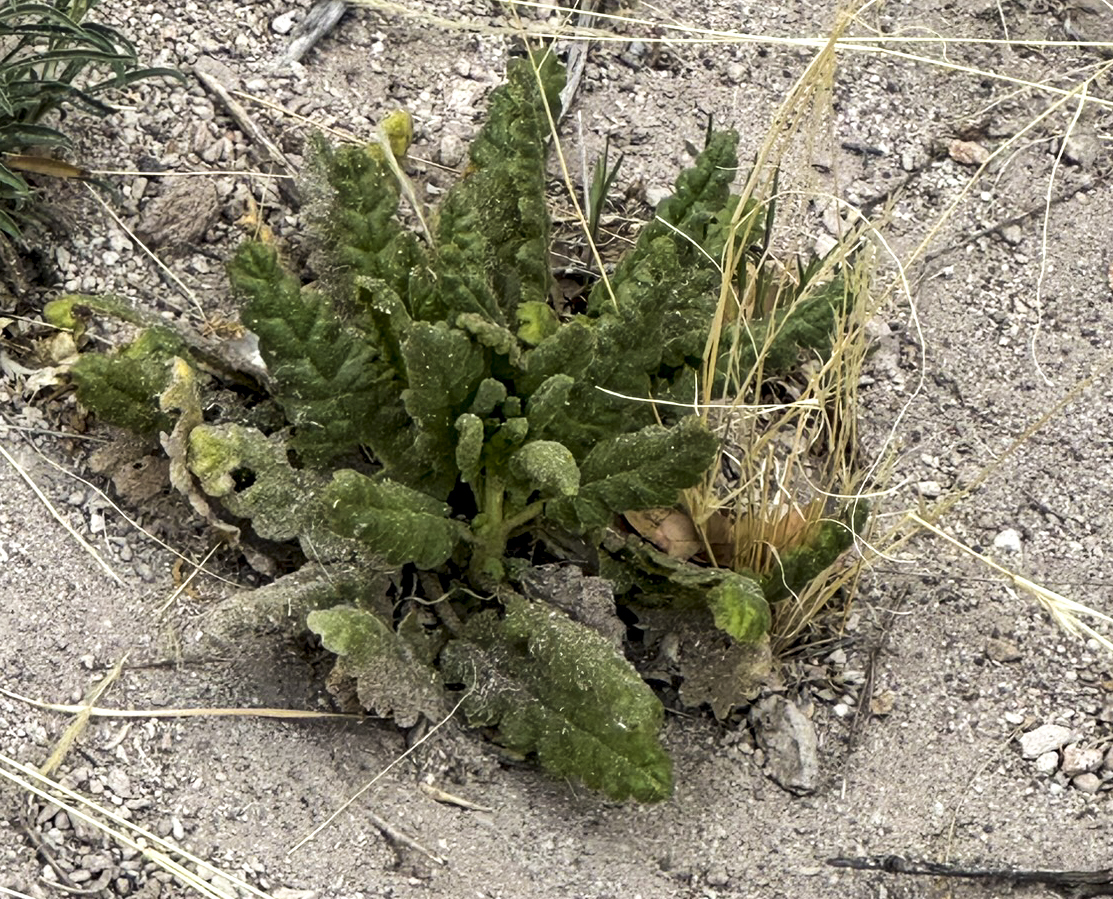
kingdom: Plantae
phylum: Tracheophyta
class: Magnoliopsida
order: Boraginales
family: Hydrophyllaceae
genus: Phacelia
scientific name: Phacelia integrifolia
